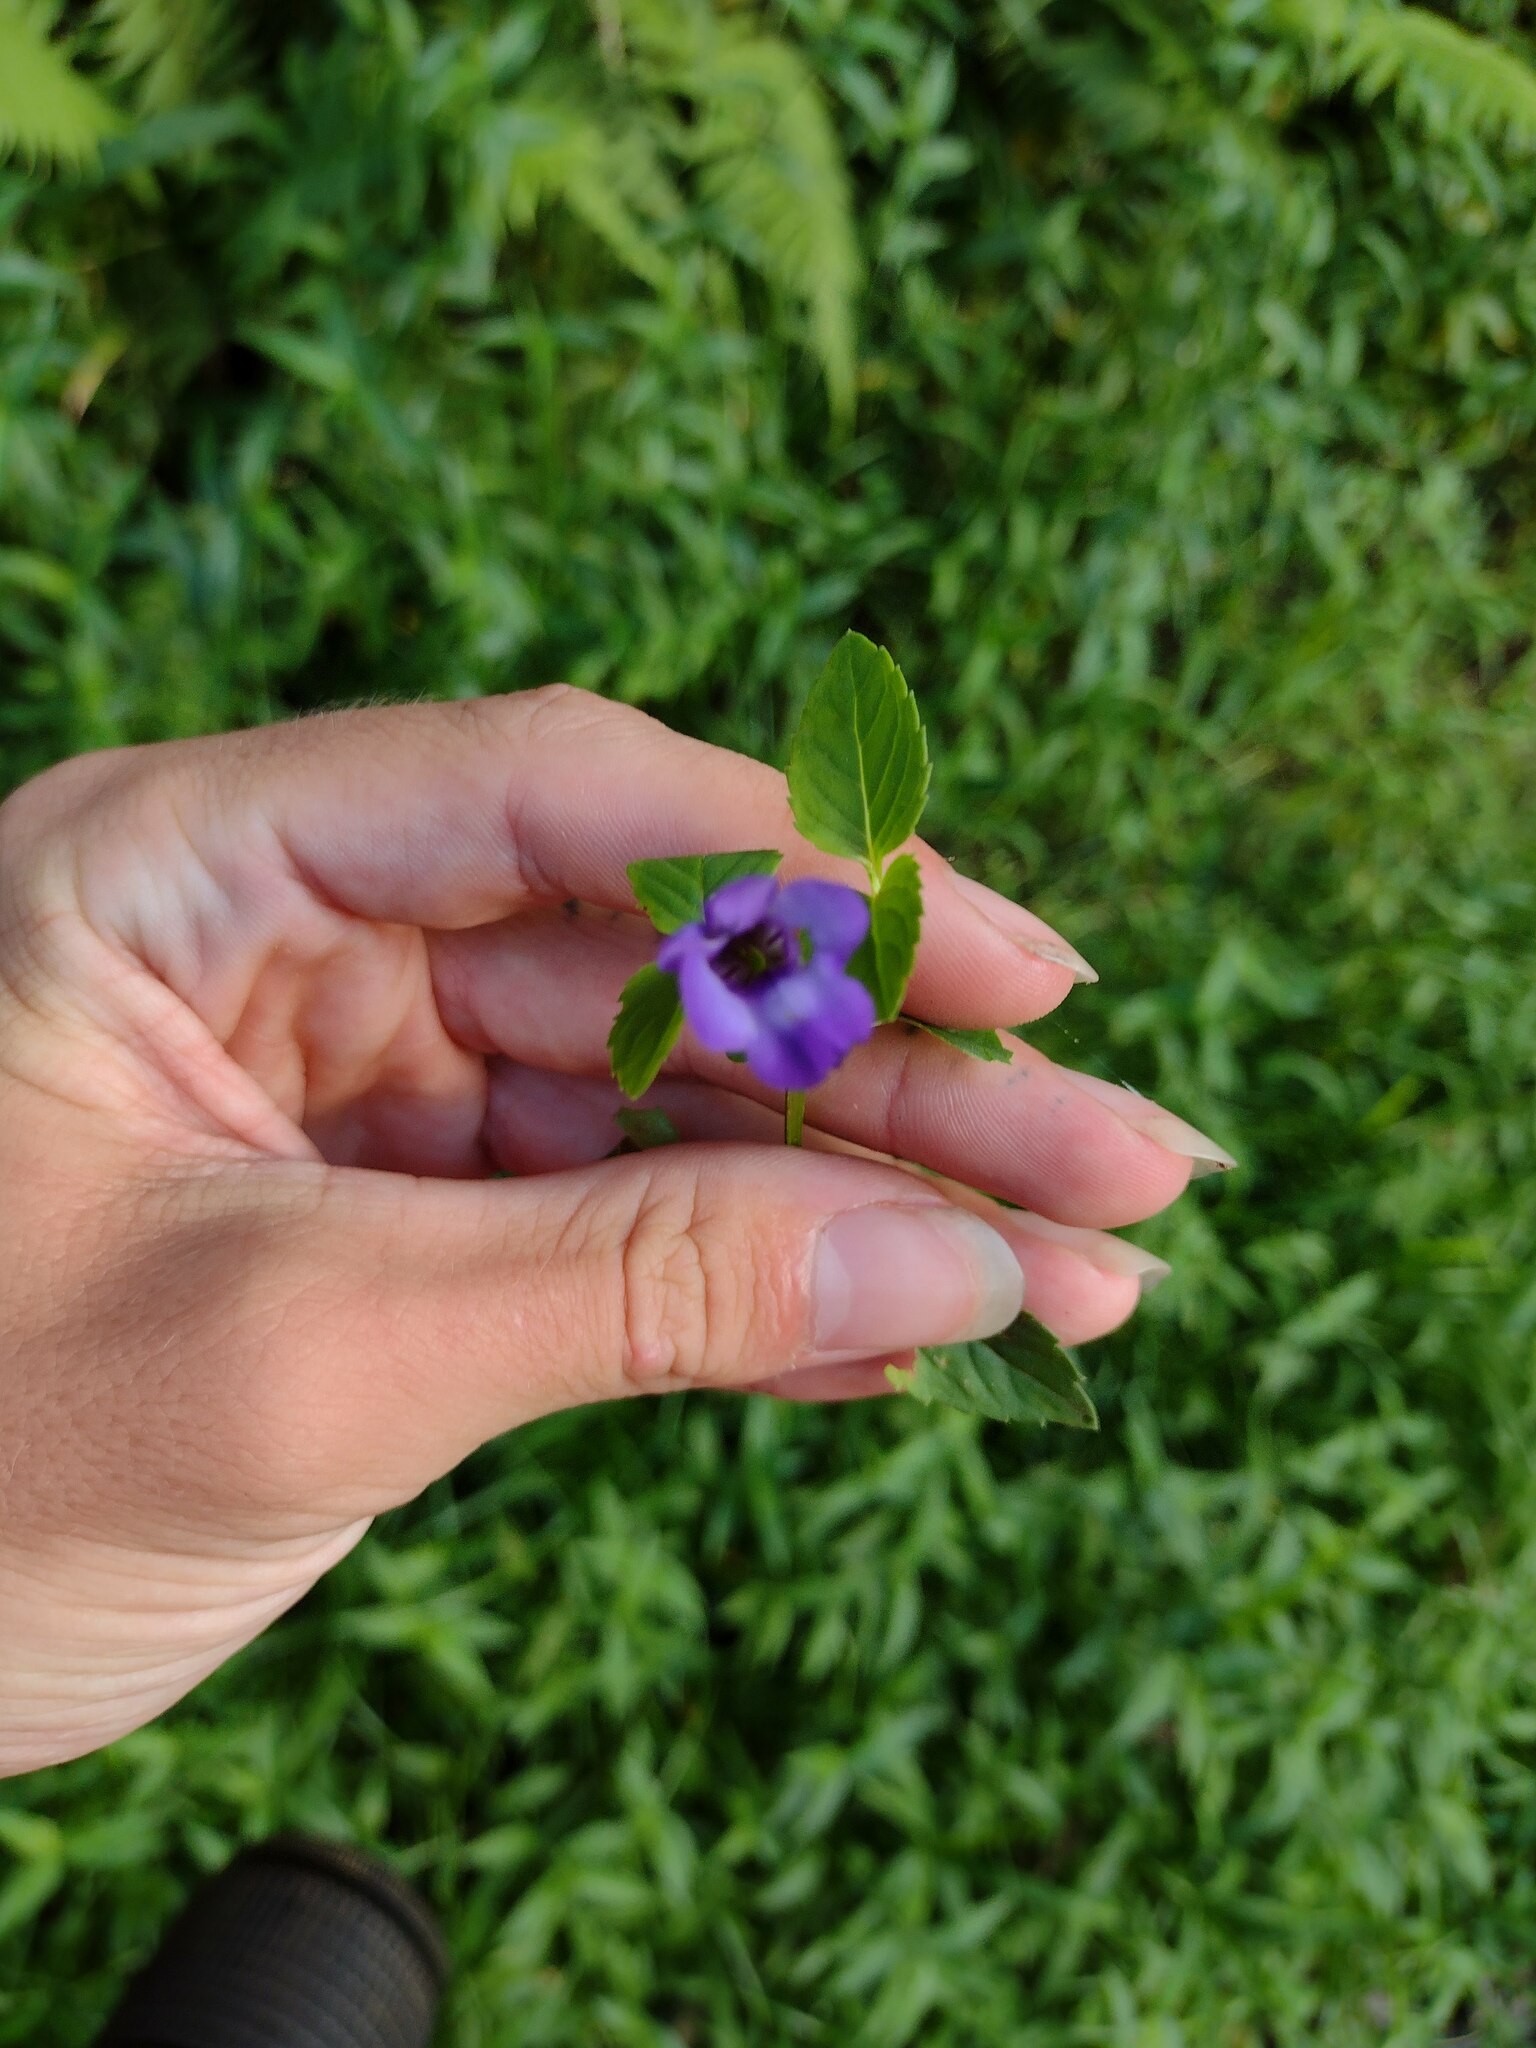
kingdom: Plantae
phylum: Tracheophyta
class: Magnoliopsida
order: Lamiales
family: Linderniaceae
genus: Torenia
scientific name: Torenia asiatica
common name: Wishbone flower
